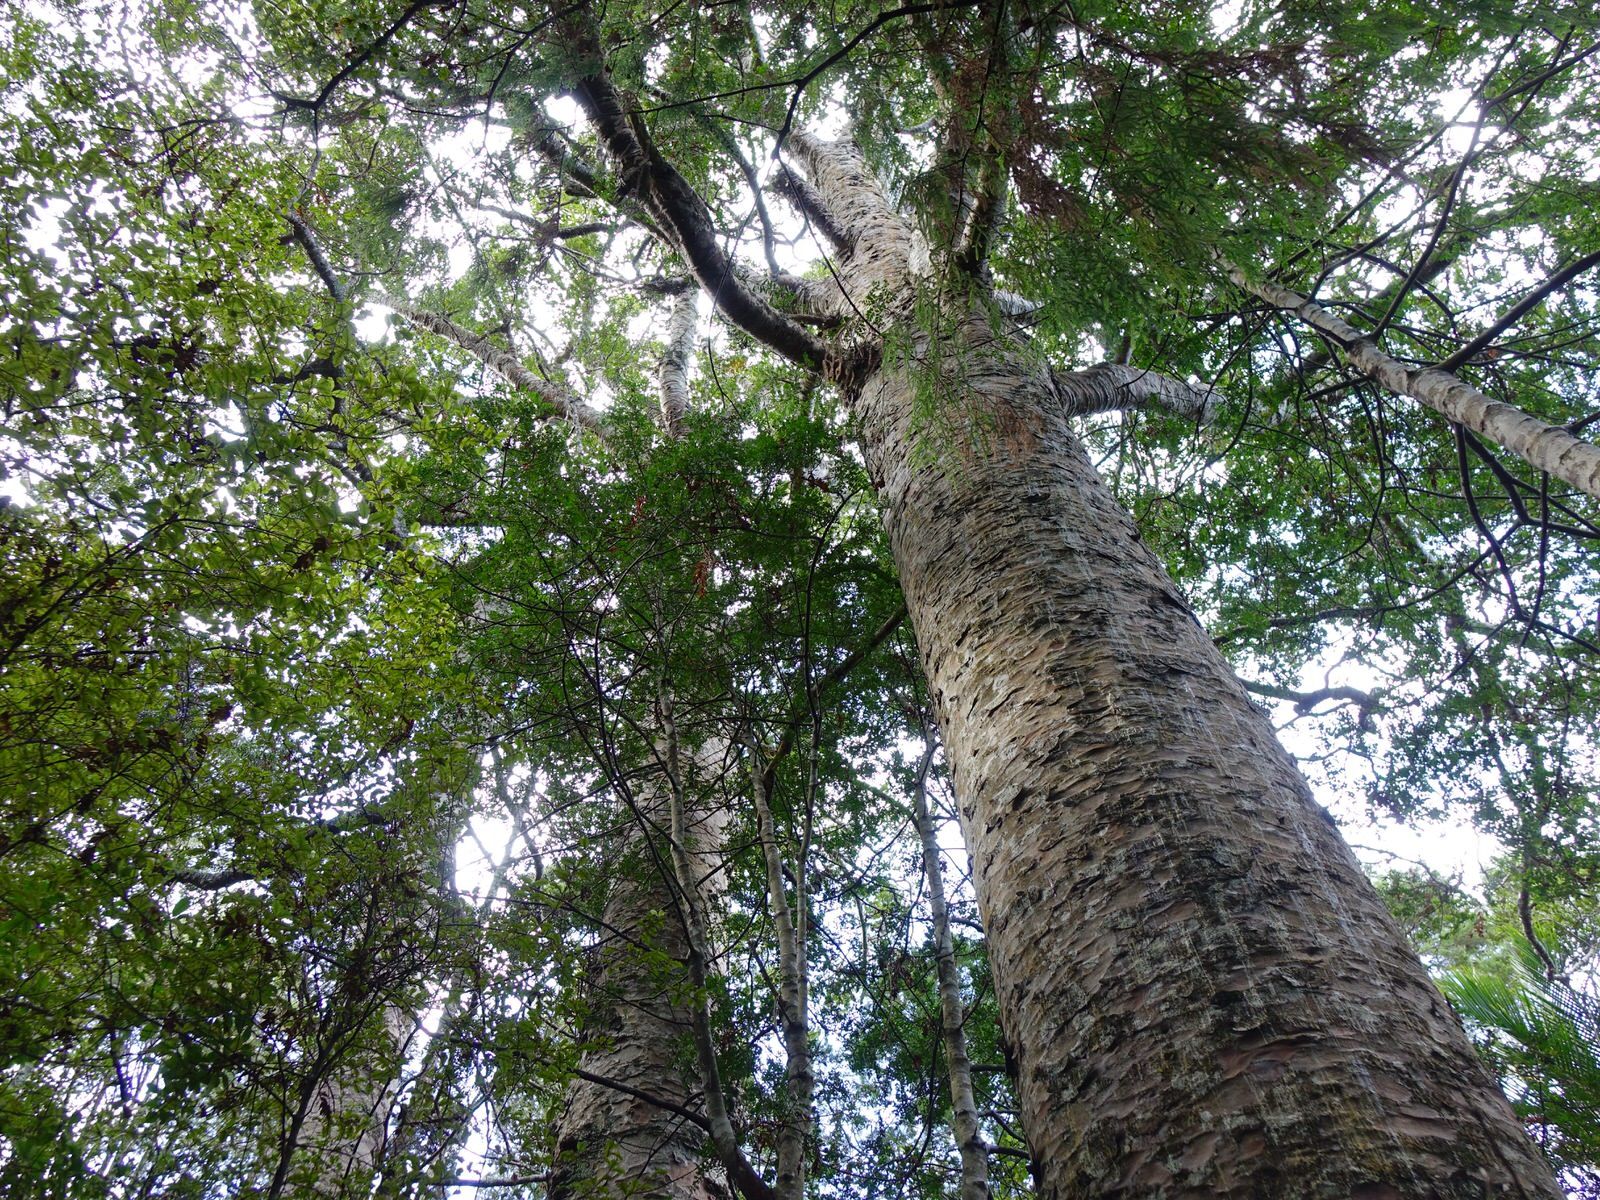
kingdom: Plantae
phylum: Tracheophyta
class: Pinopsida
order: Pinales
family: Araucariaceae
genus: Agathis
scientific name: Agathis australis
